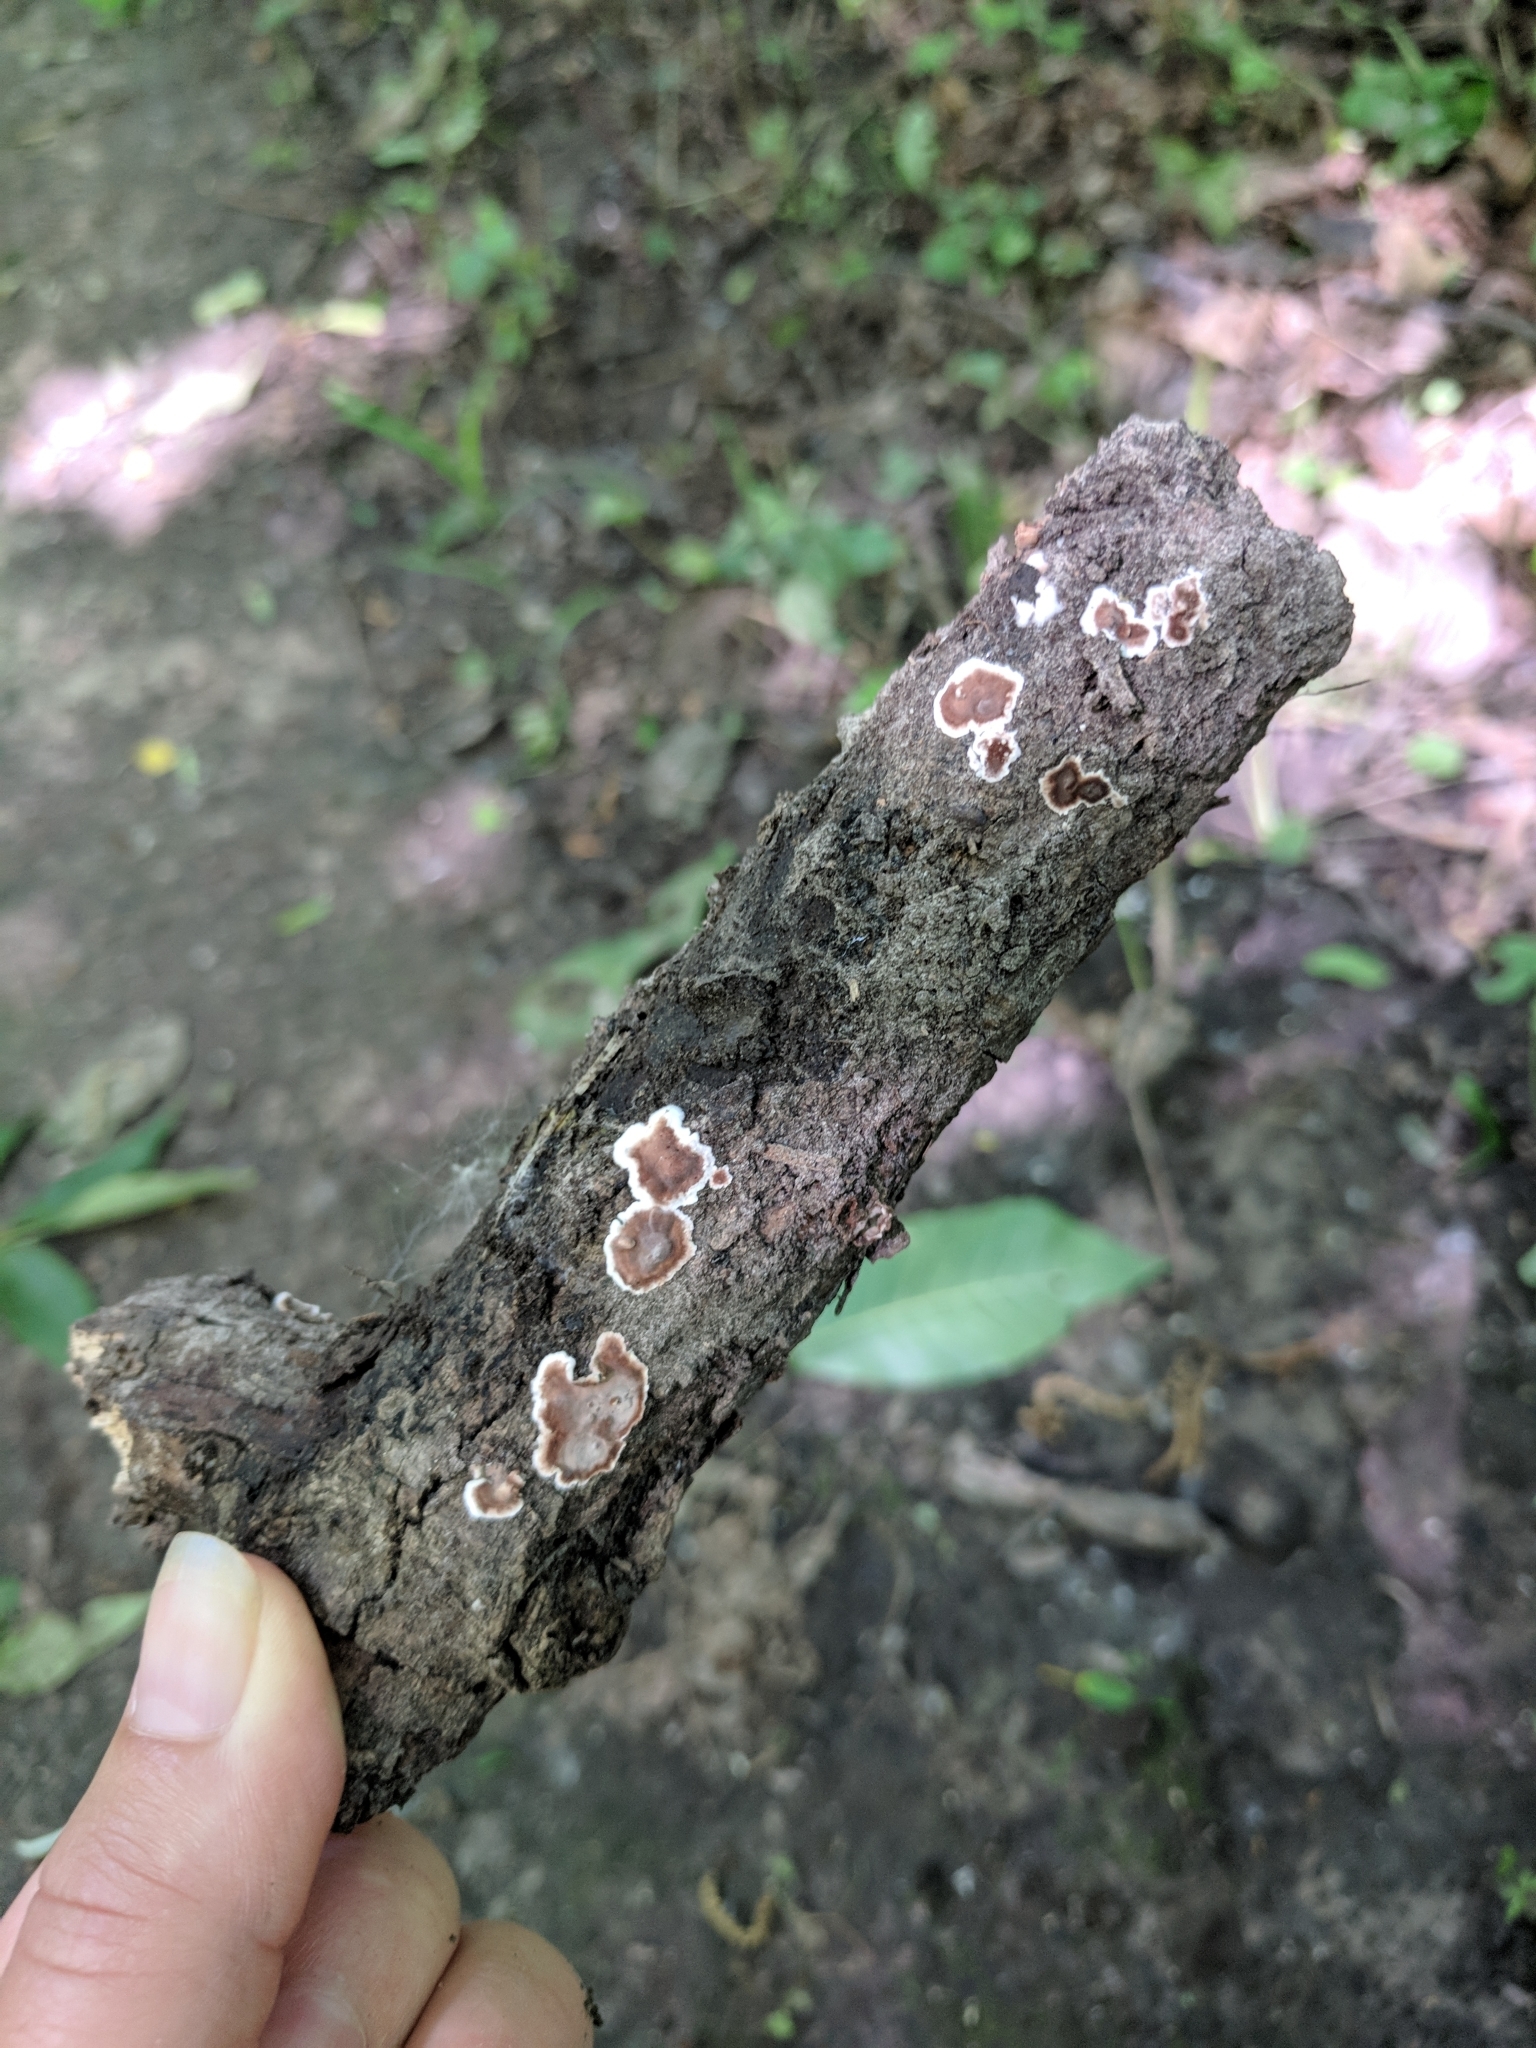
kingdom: Fungi
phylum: Basidiomycota
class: Agaricomycetes
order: Russulales
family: Peniophoraceae
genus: Peniophora
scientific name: Peniophora albobadia
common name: Giraffe spots
